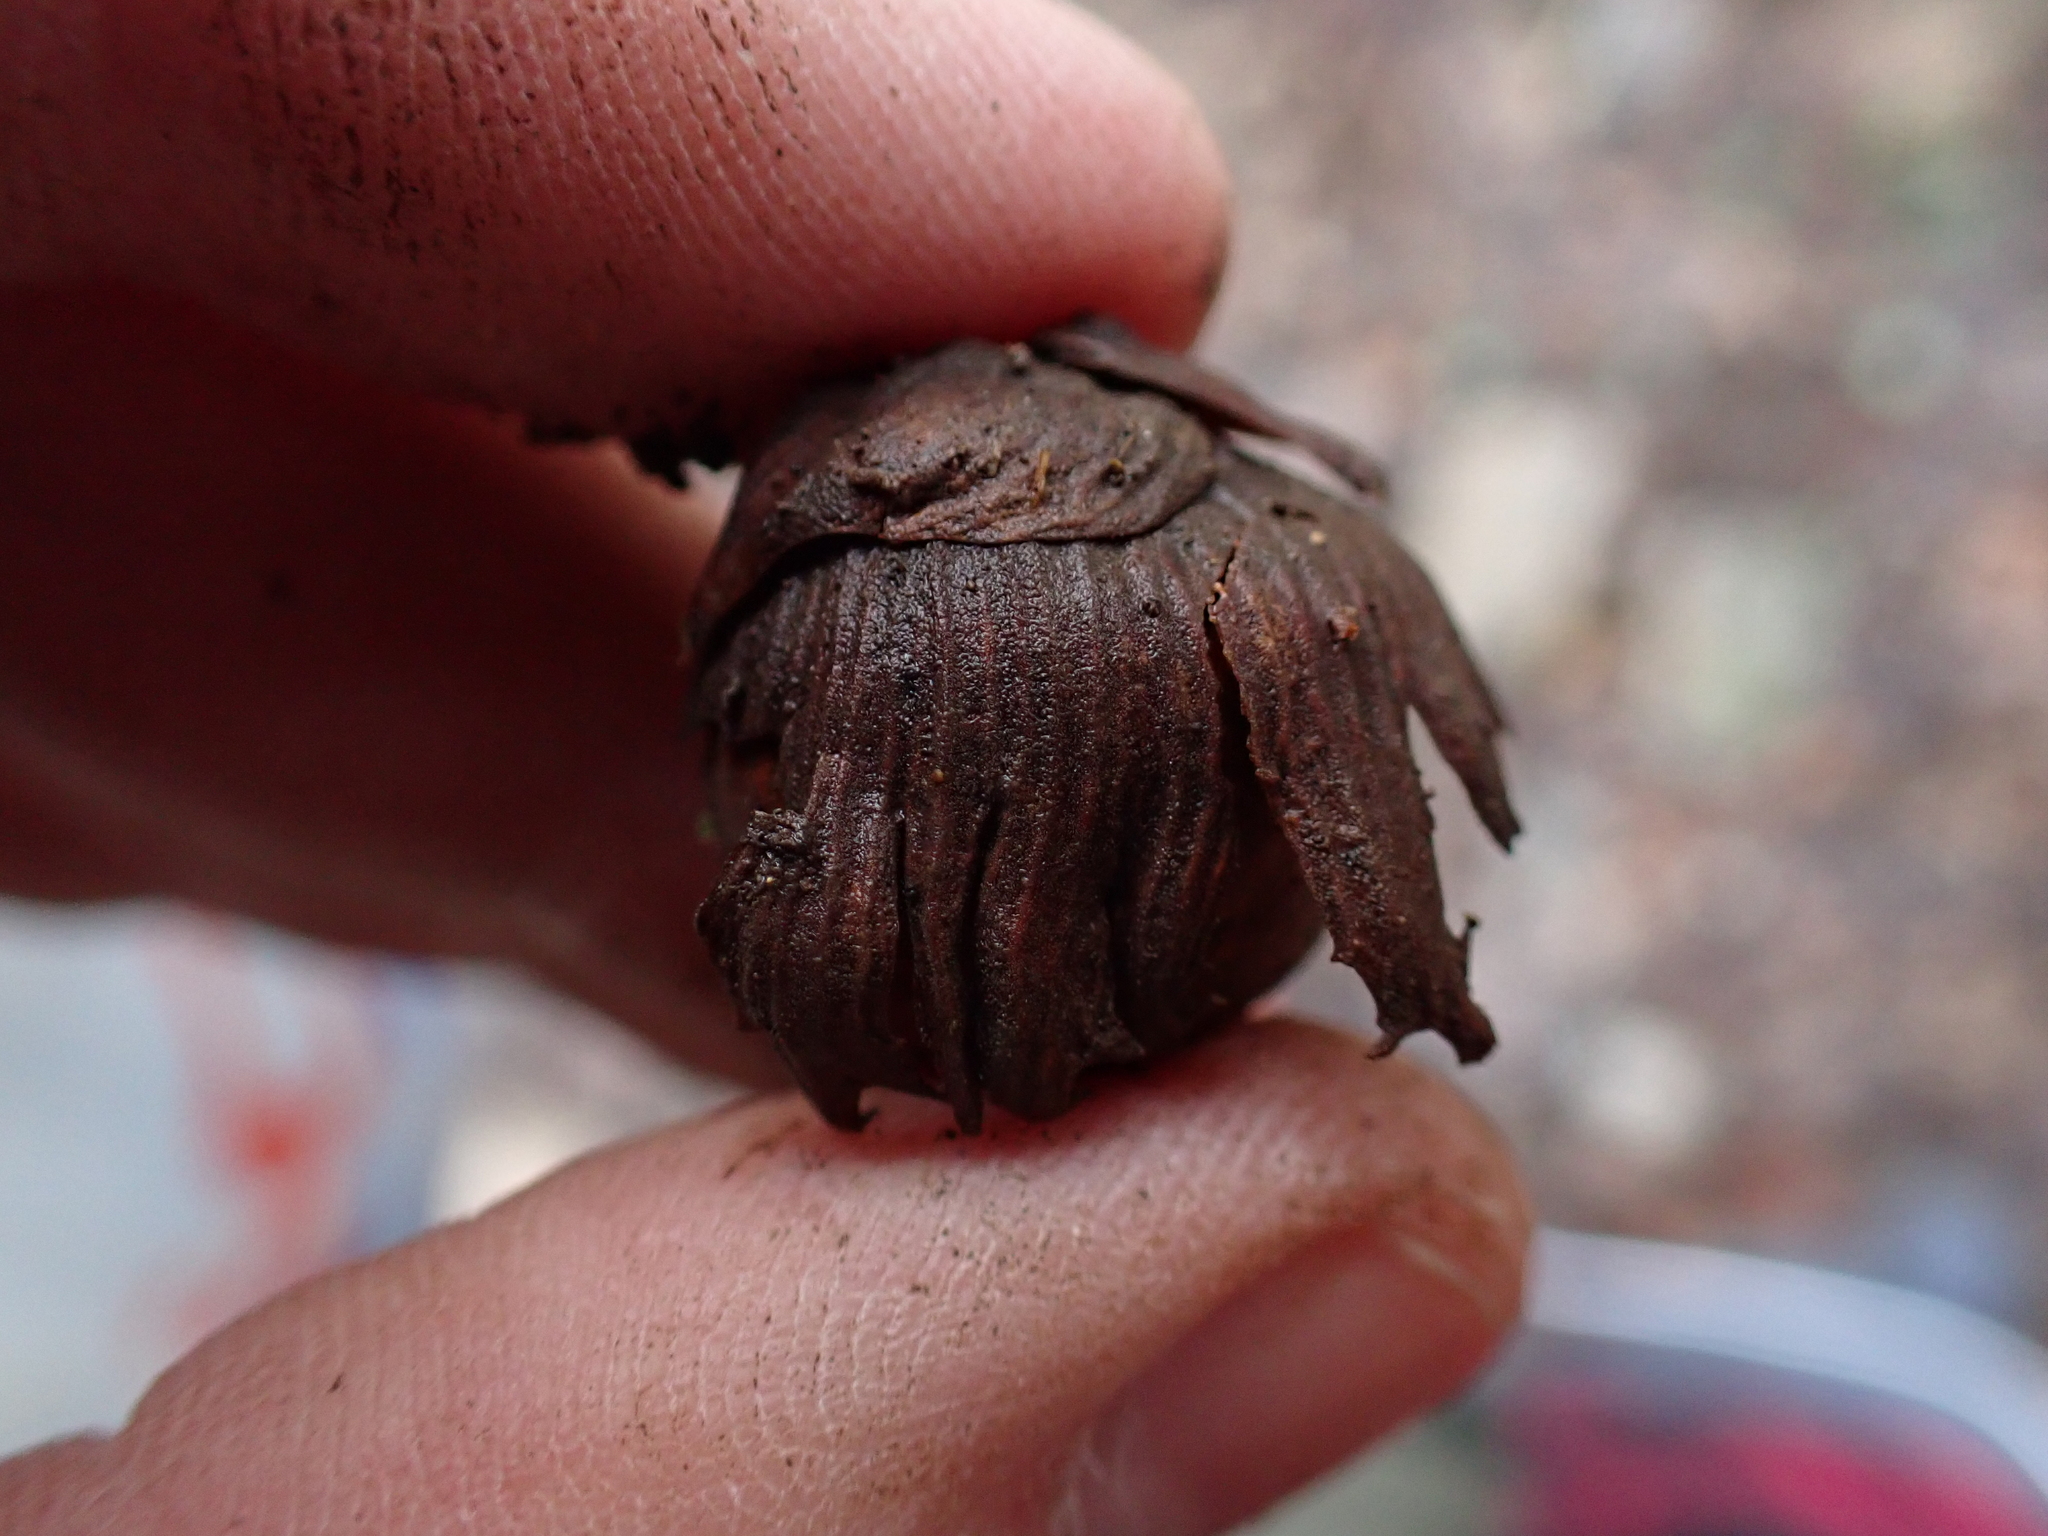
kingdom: Plantae
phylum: Tracheophyta
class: Magnoliopsida
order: Fagales
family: Betulaceae
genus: Corylus
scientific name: Corylus avellana
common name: European hazel
